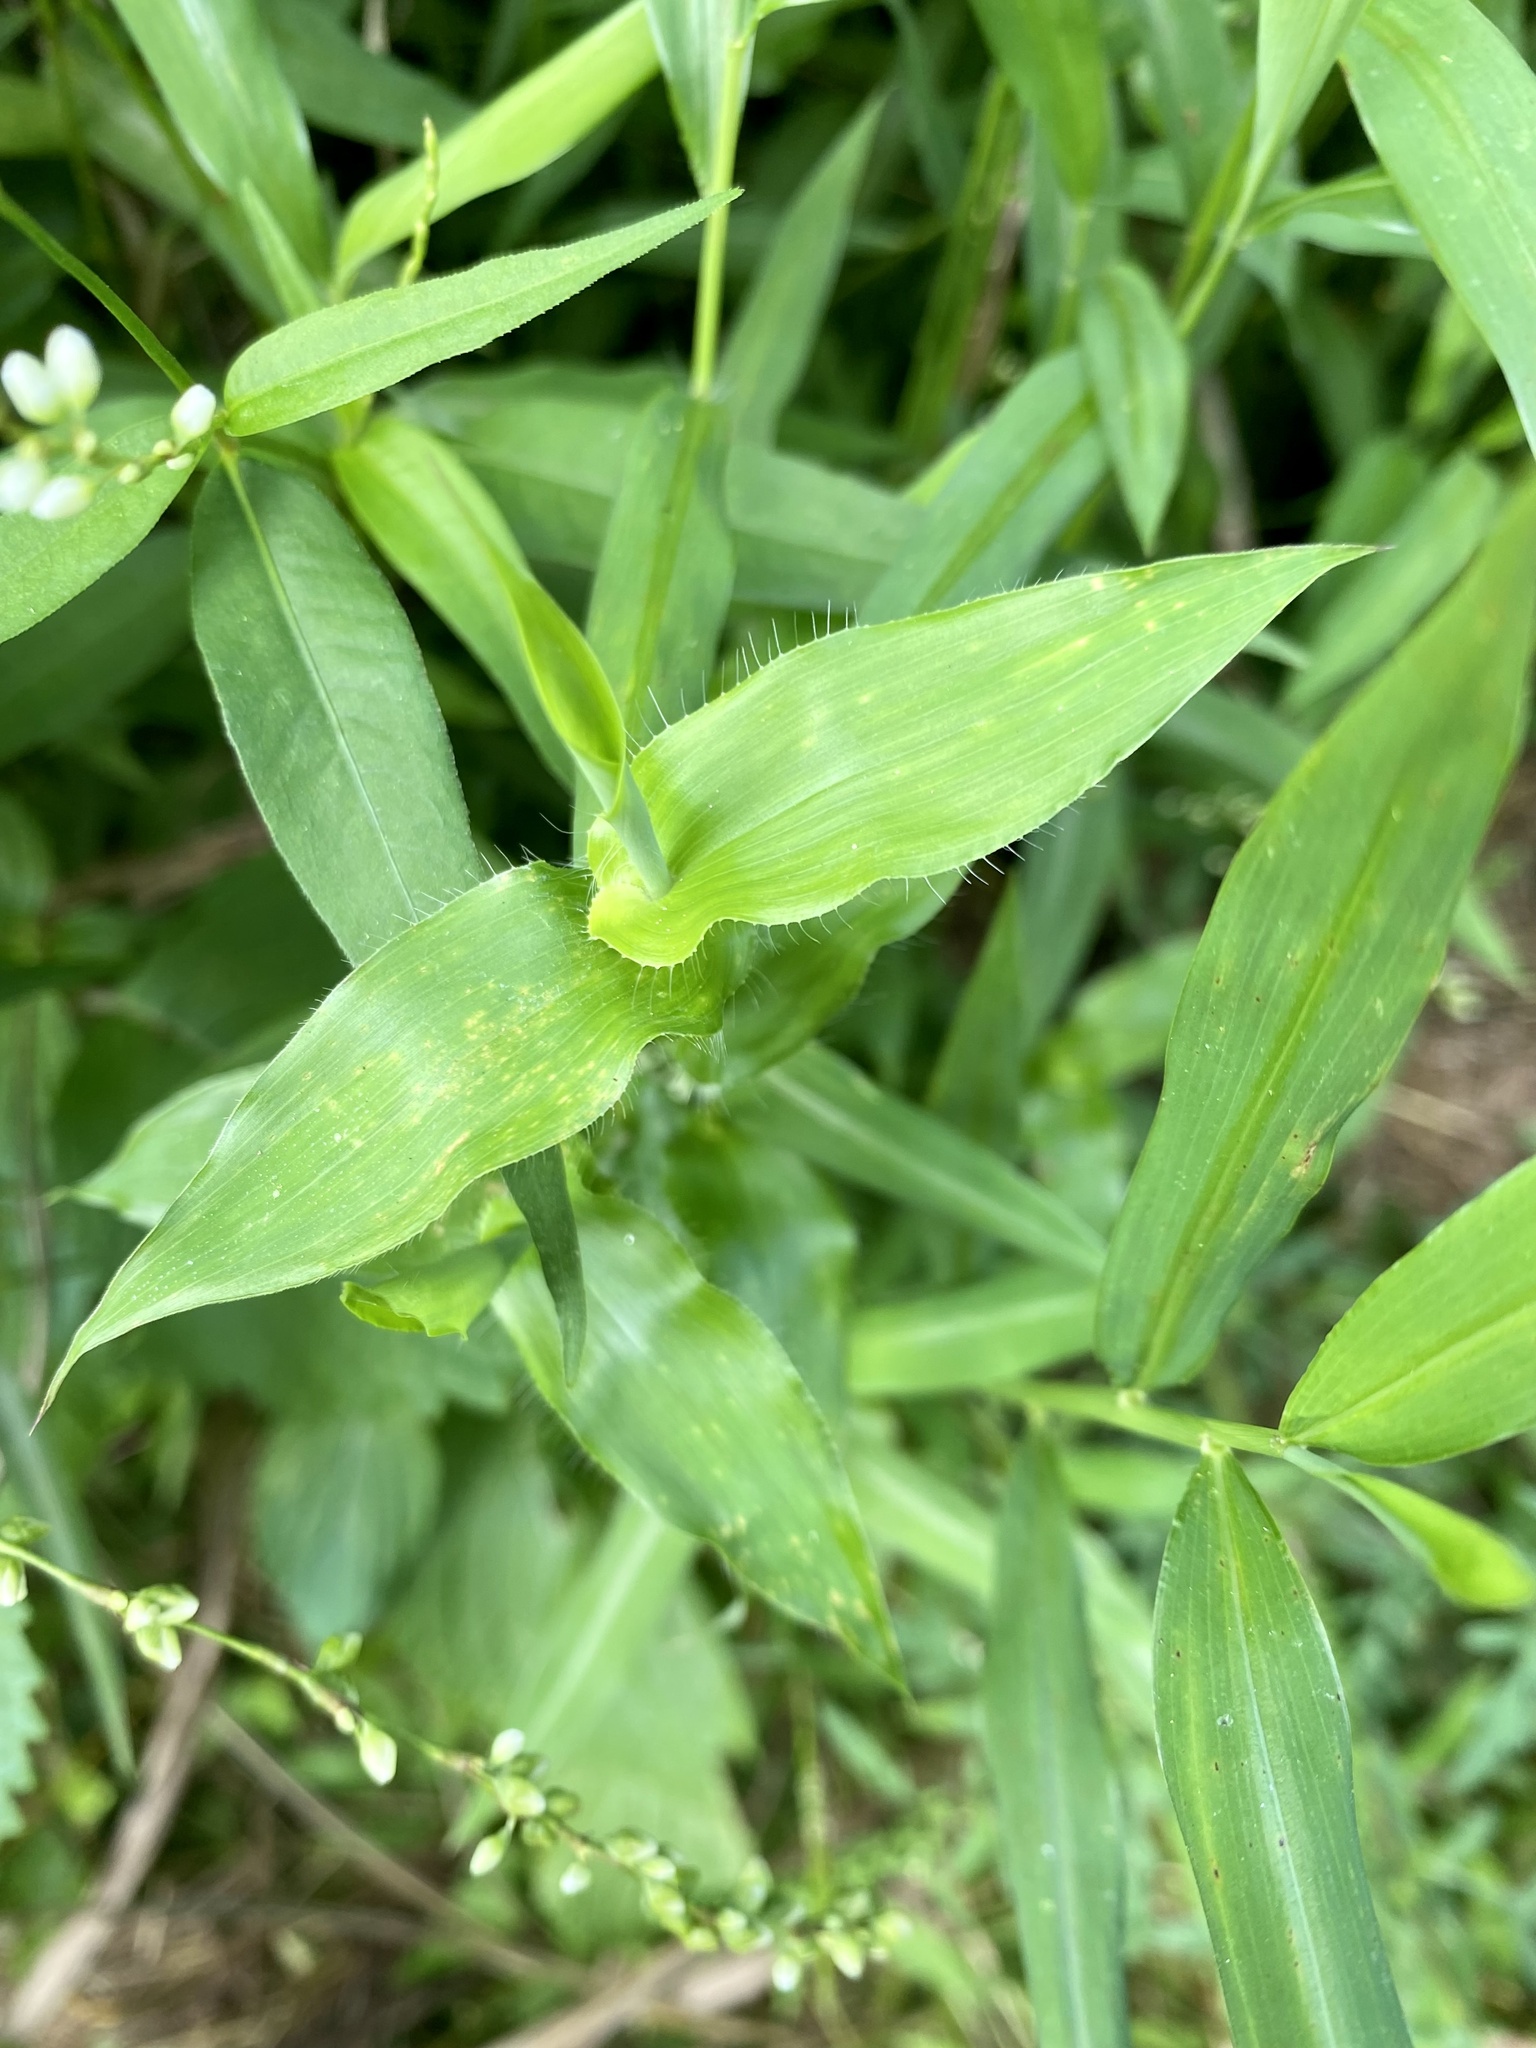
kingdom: Plantae
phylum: Tracheophyta
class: Liliopsida
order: Poales
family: Poaceae
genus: Arthraxon
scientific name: Arthraxon hispidus
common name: Small carpgrass
